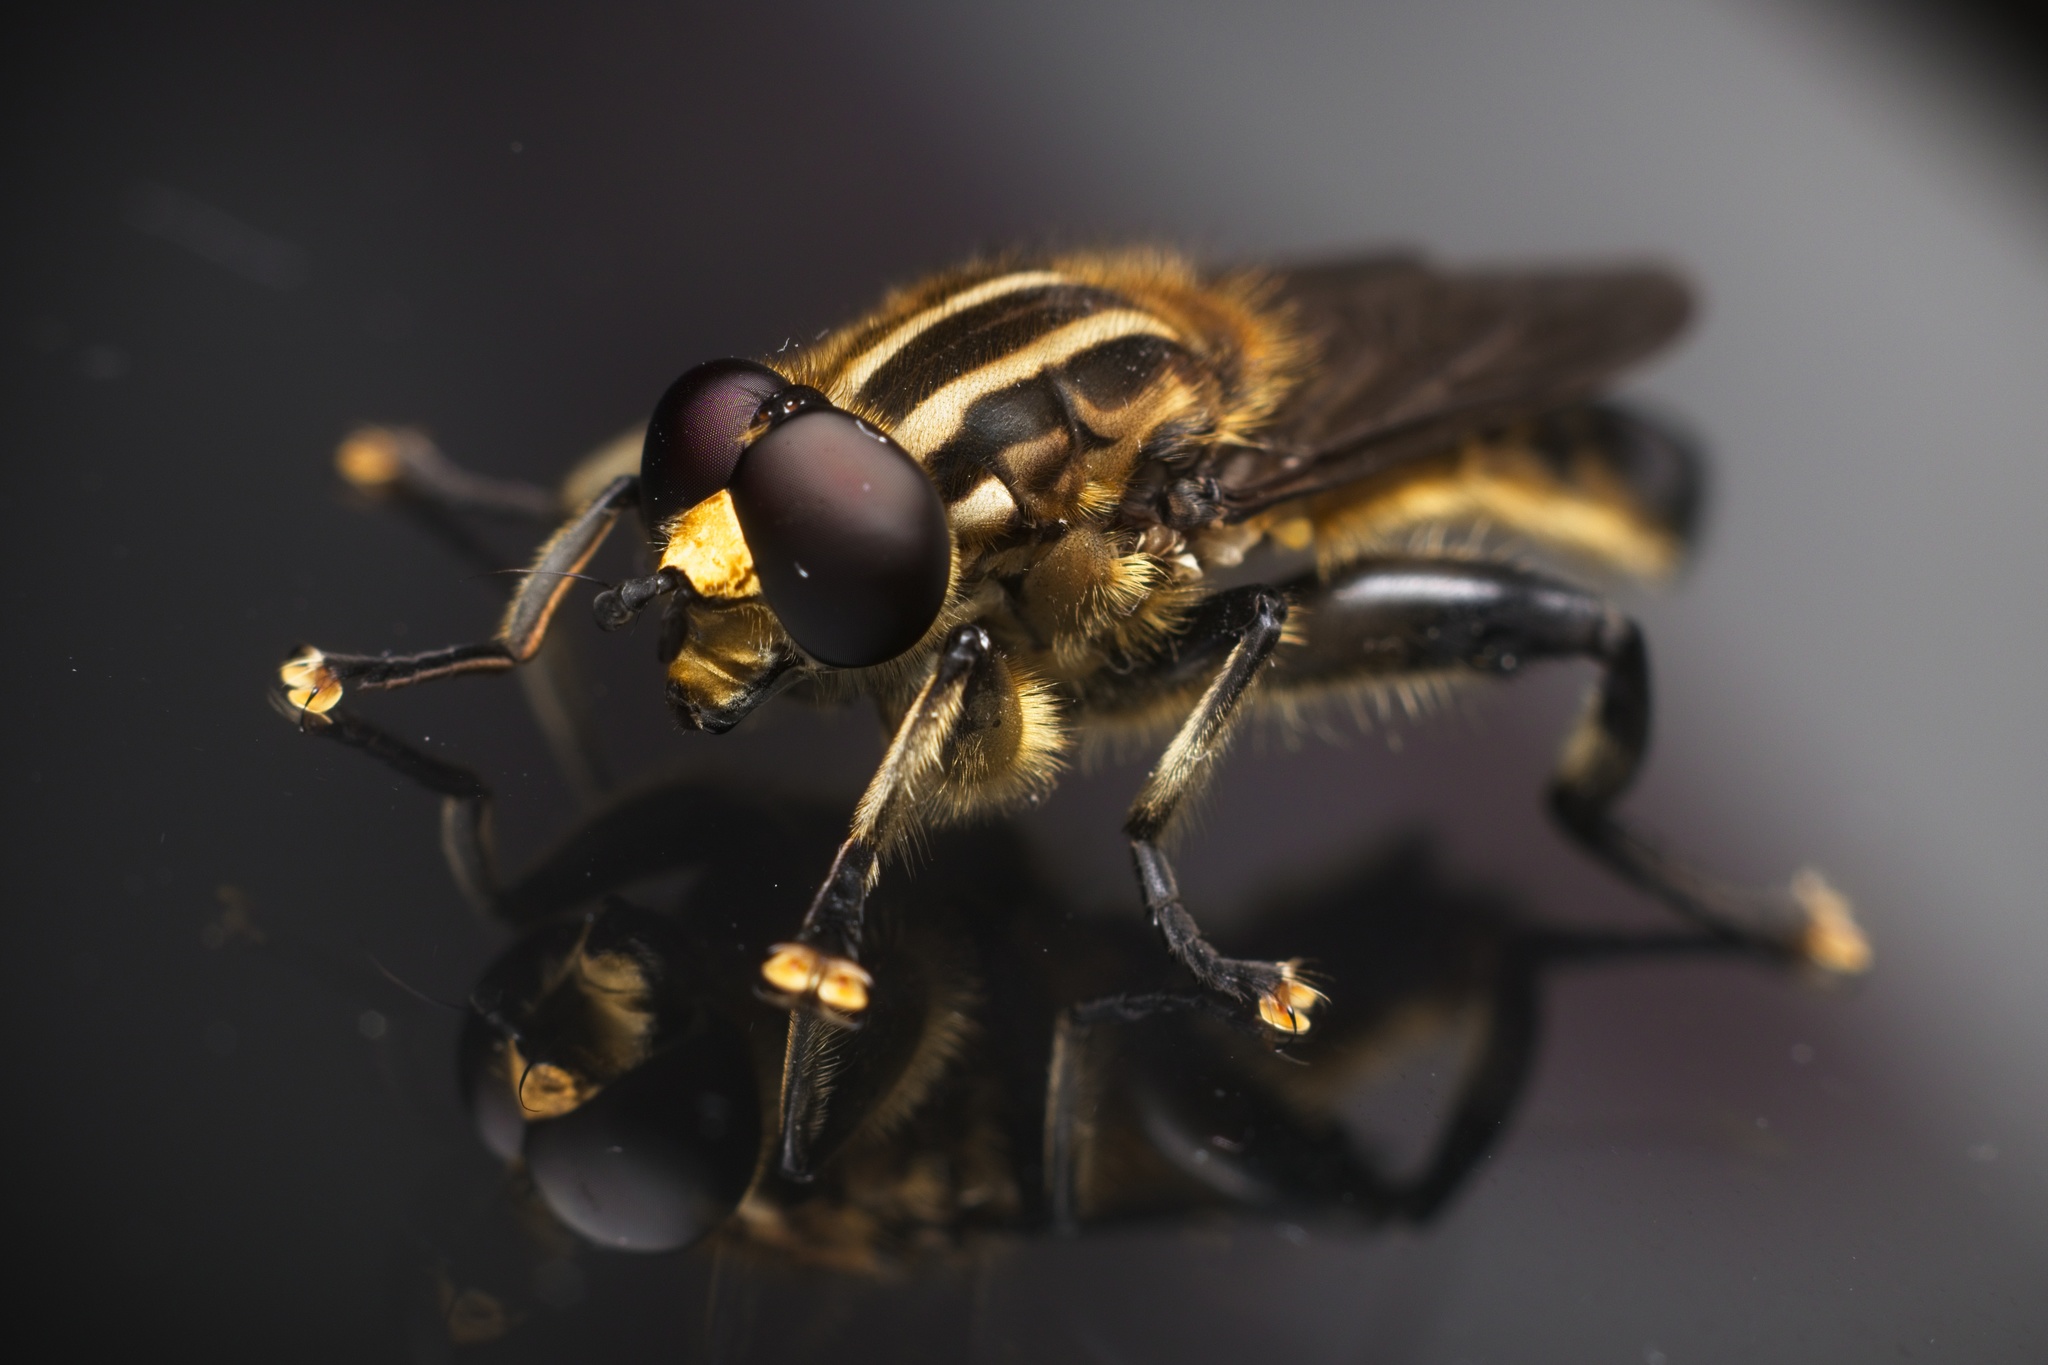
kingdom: Animalia
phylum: Arthropoda
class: Insecta
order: Diptera
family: Syrphidae
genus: Orthoprosopa
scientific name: Orthoprosopa bilineata
